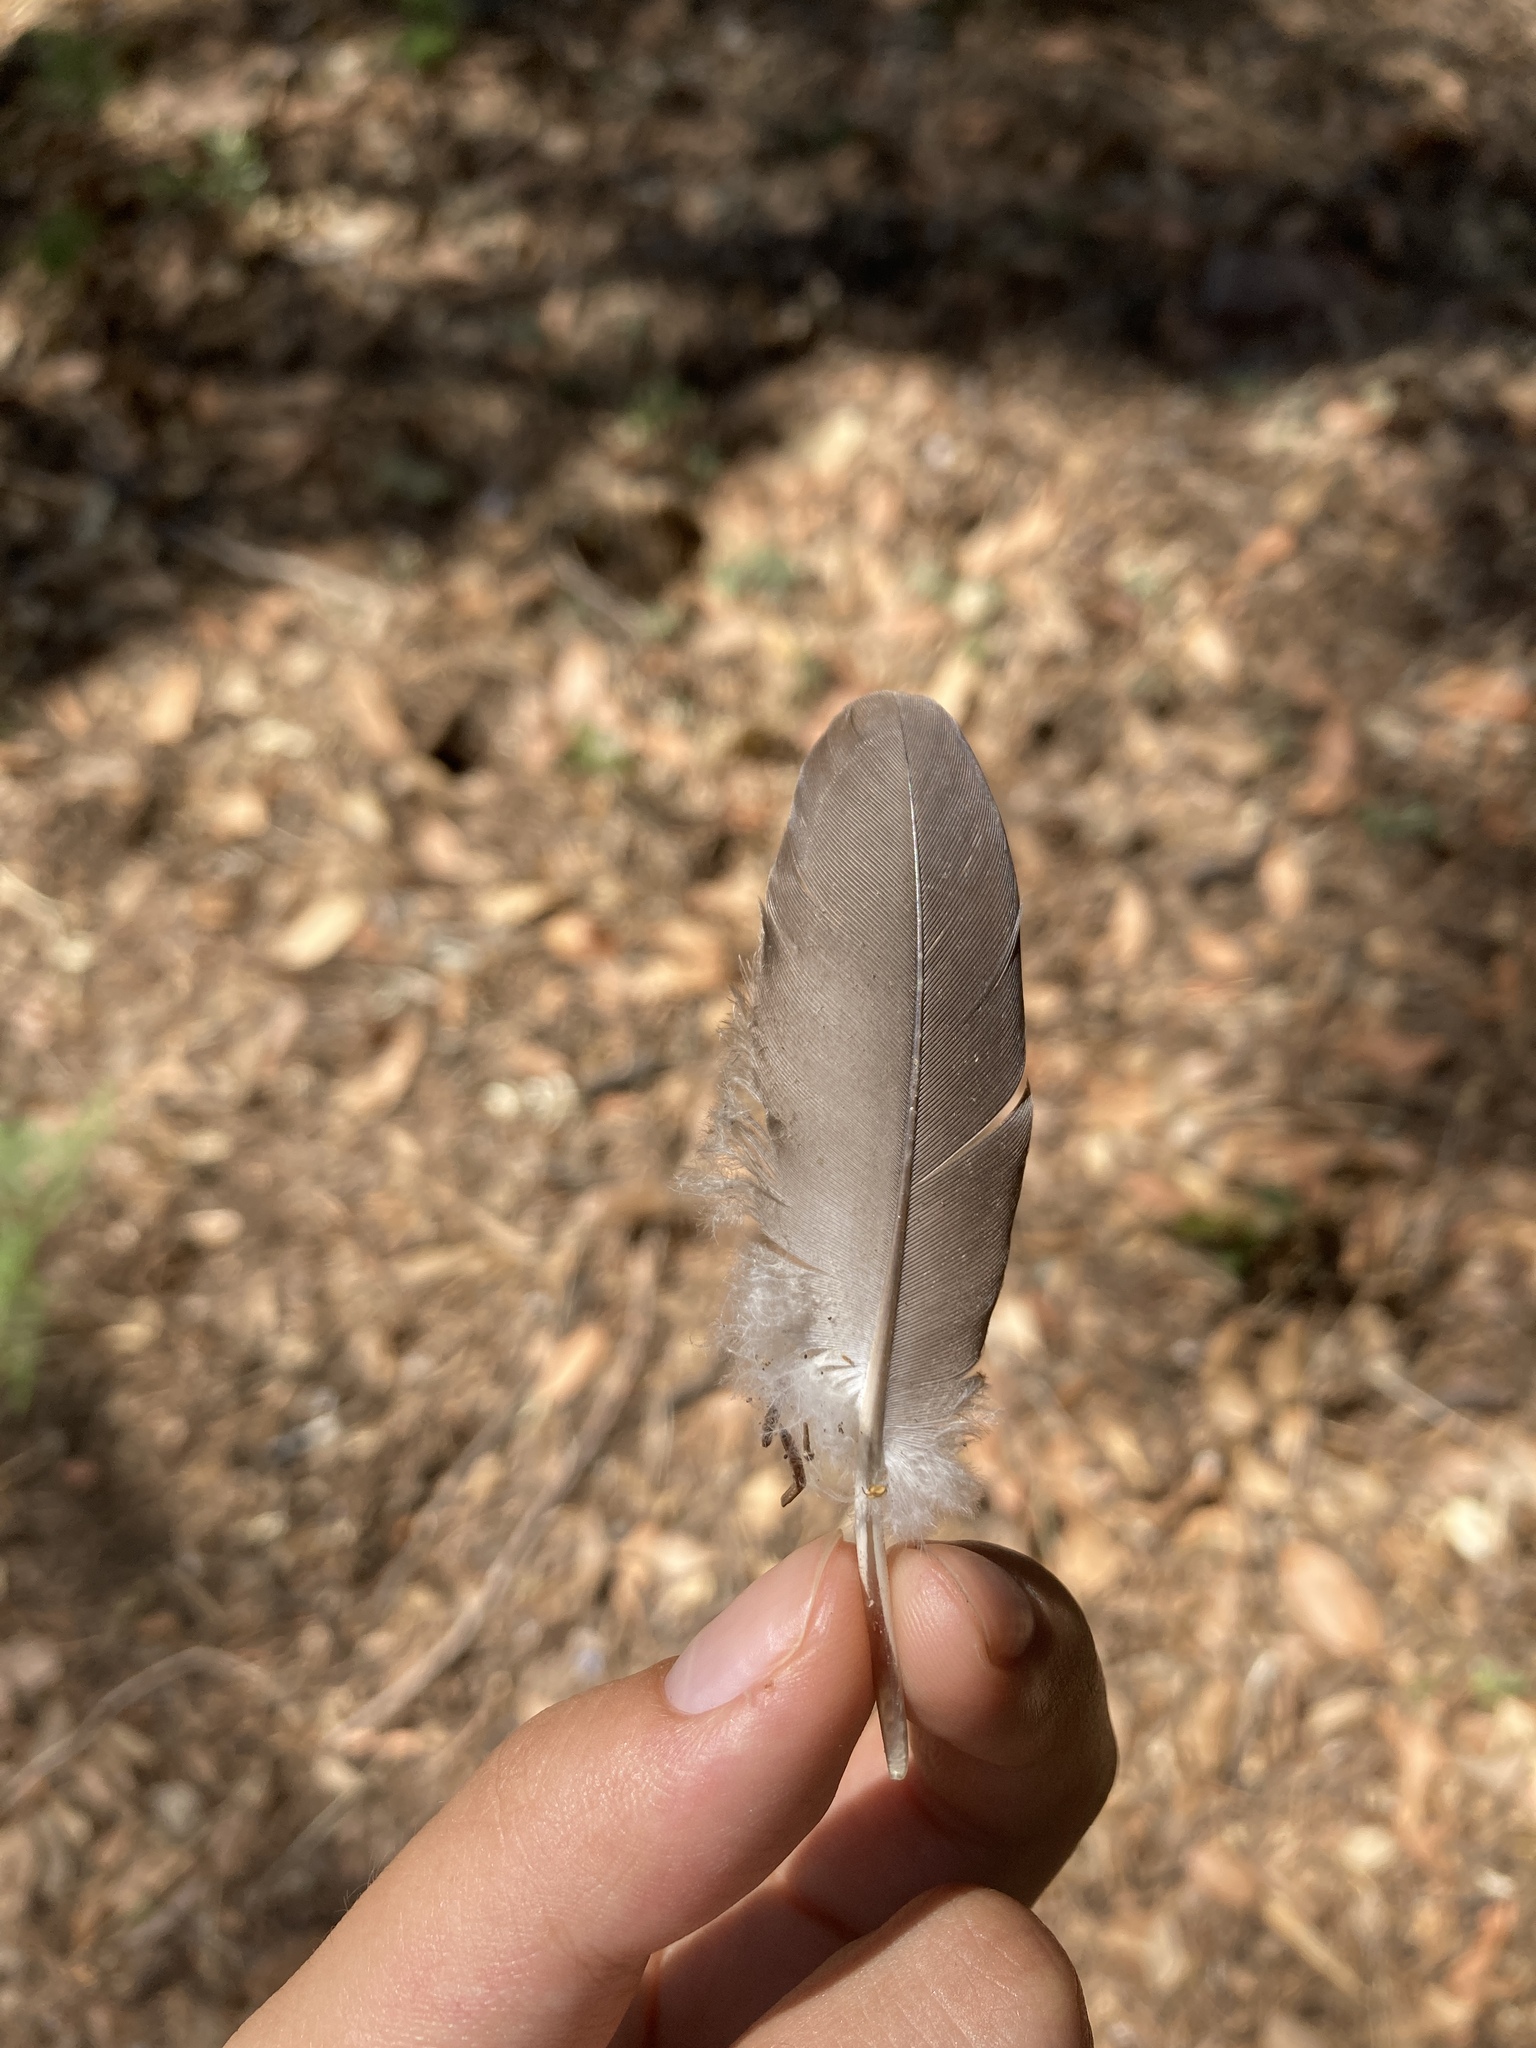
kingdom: Animalia
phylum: Chordata
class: Aves
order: Columbiformes
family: Columbidae
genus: Columba
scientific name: Columba palumbus
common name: Common wood pigeon
